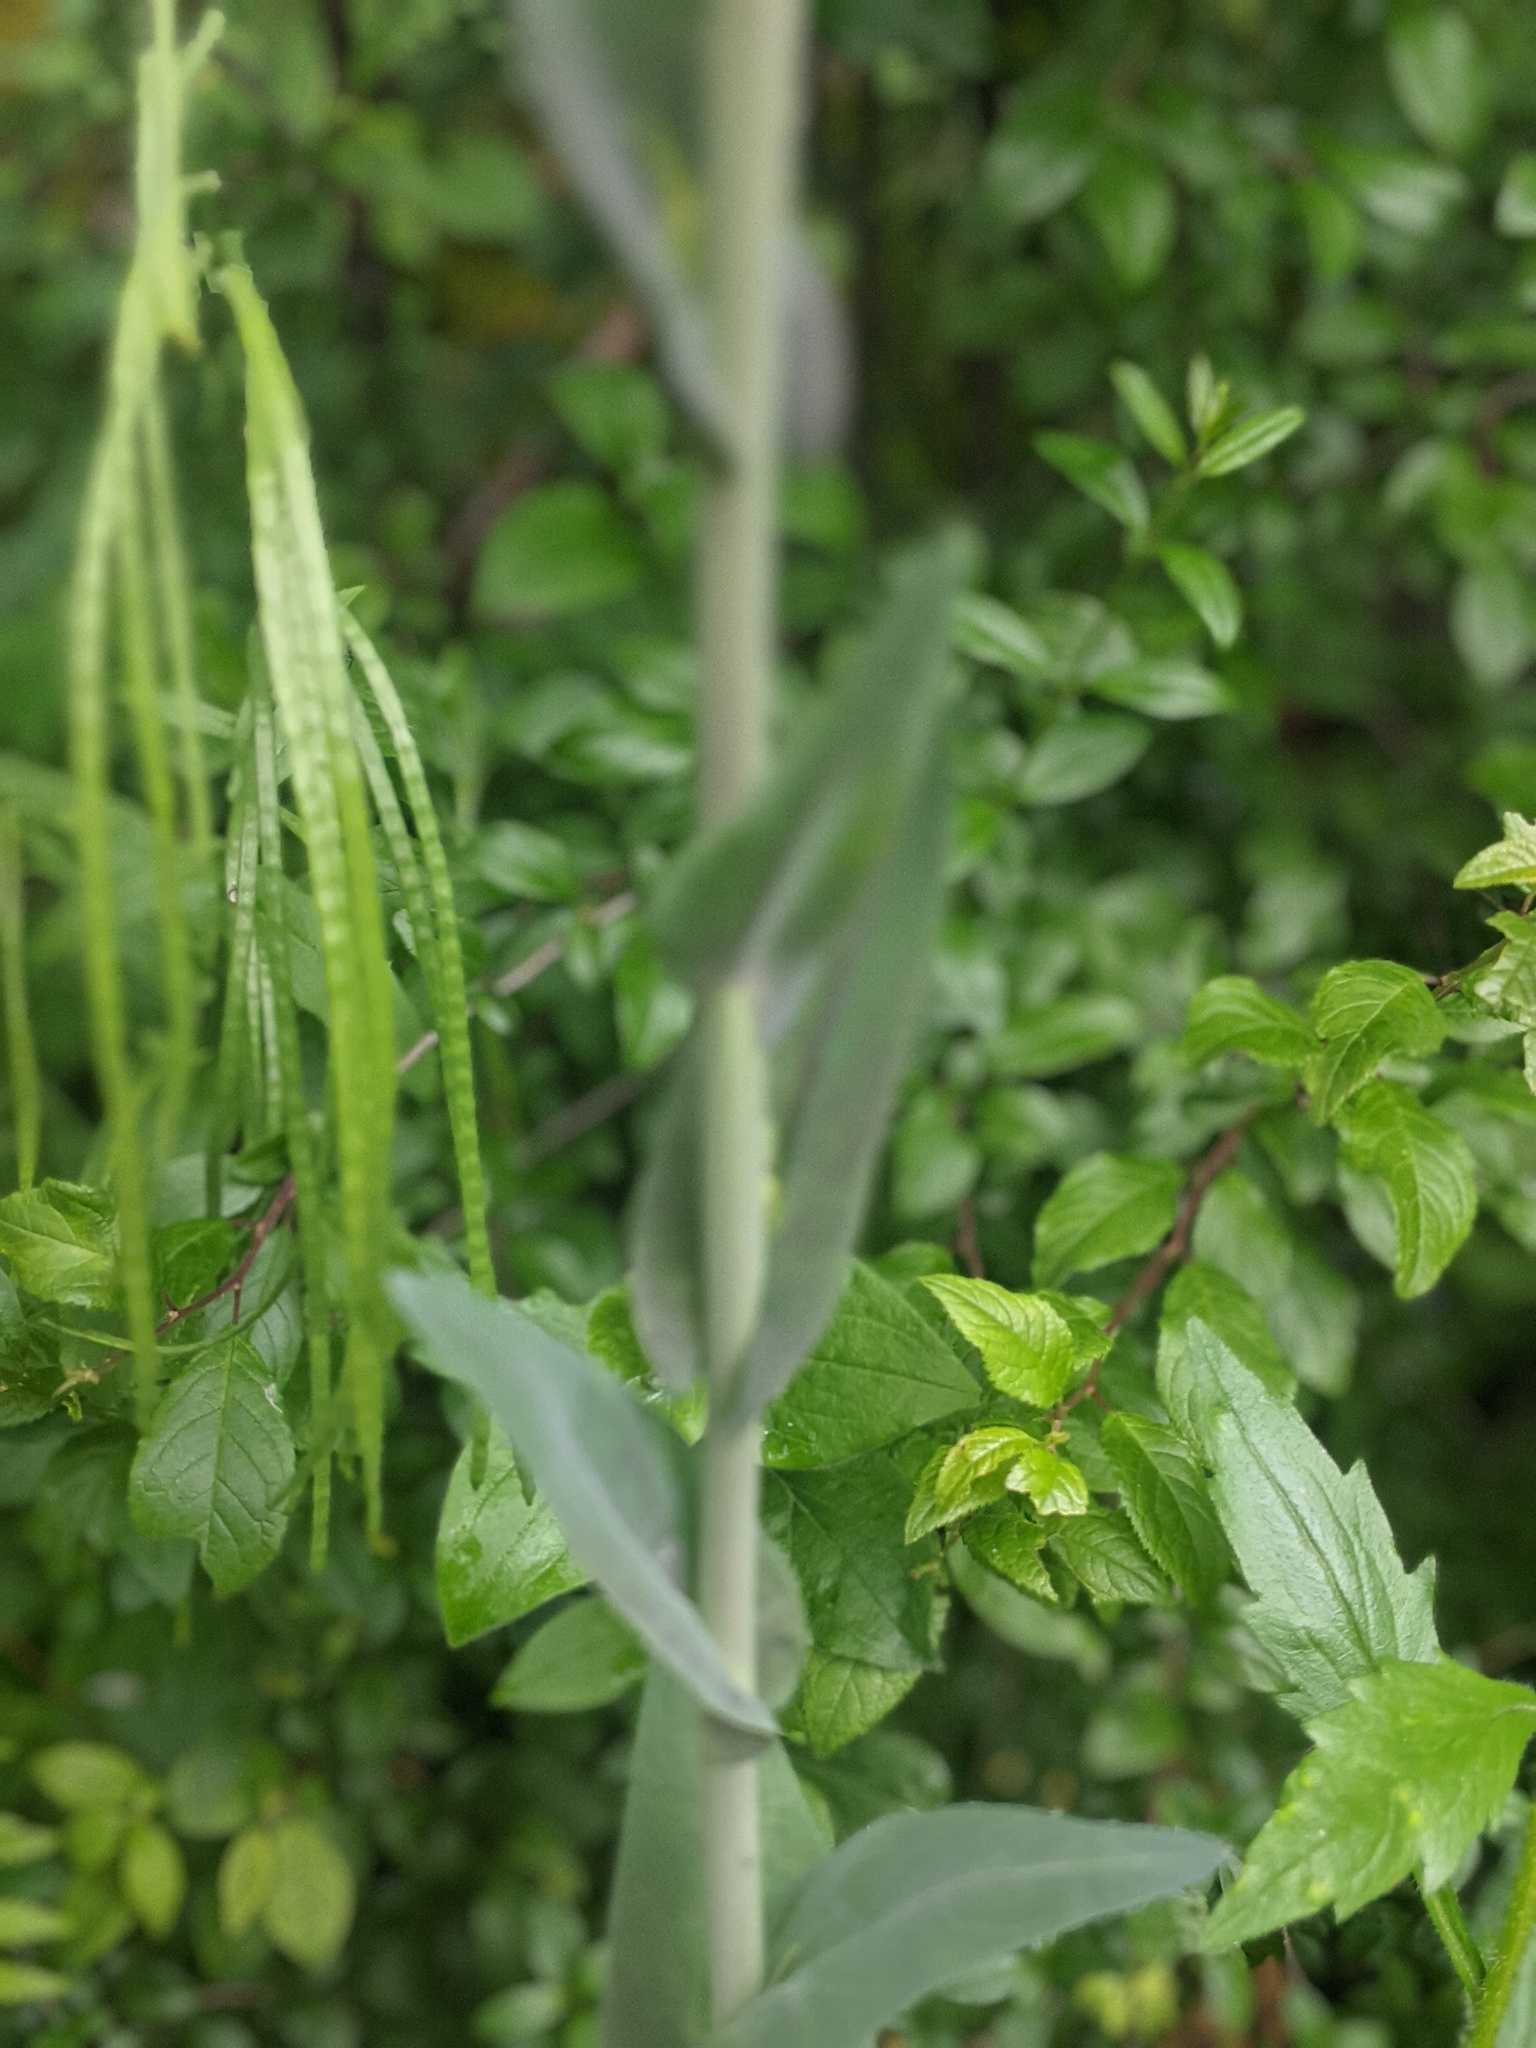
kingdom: Plantae
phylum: Tracheophyta
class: Magnoliopsida
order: Brassicales
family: Brassicaceae
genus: Fourraea
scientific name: Fourraea alpina
